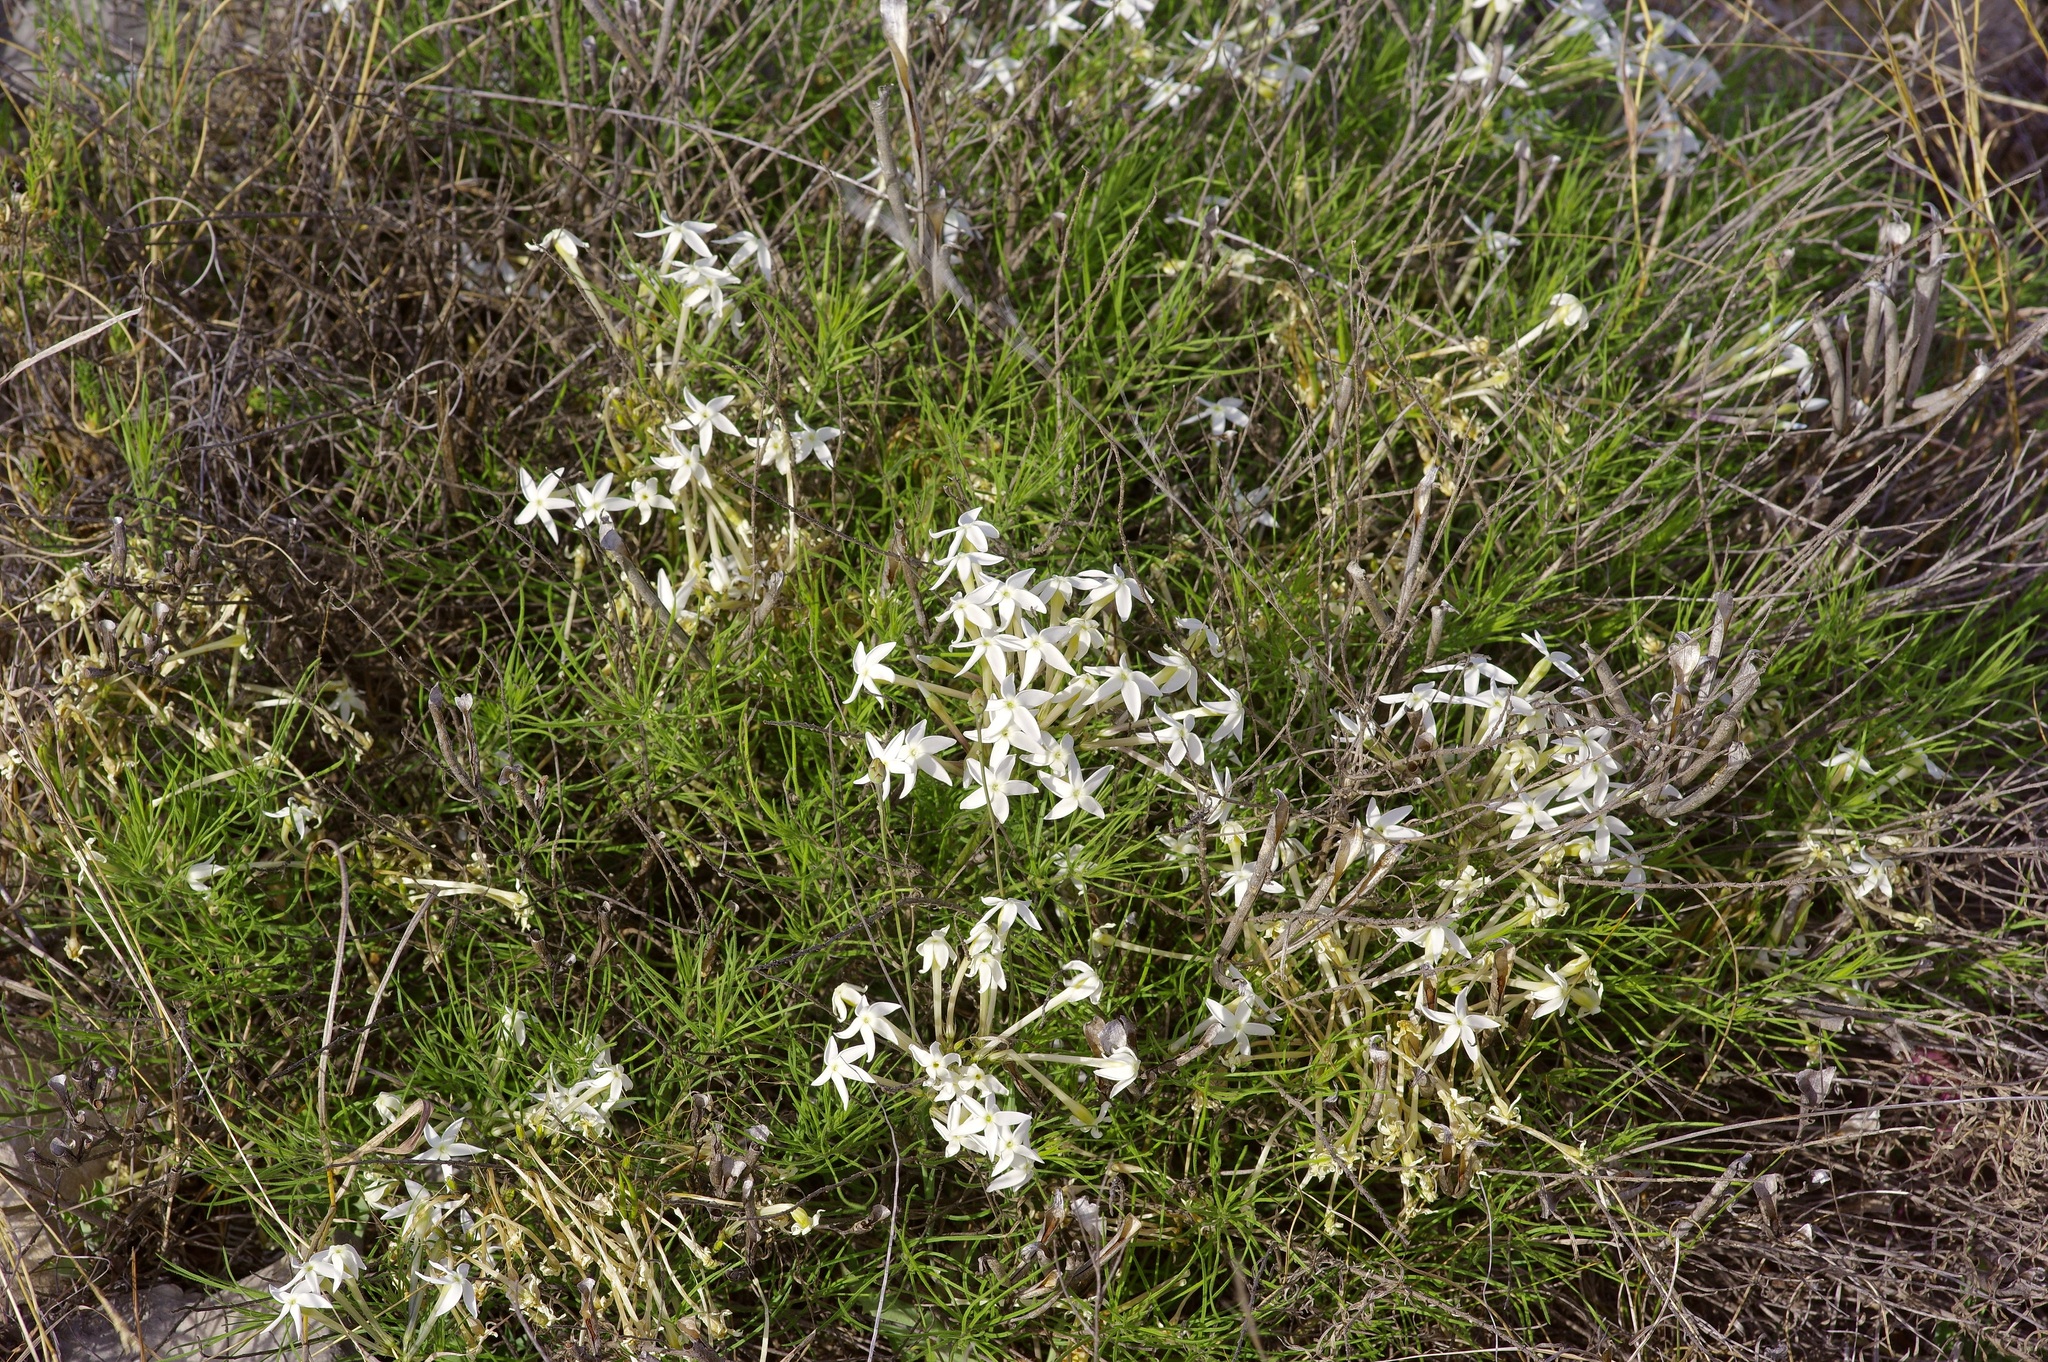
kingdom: Plantae
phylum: Tracheophyta
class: Magnoliopsida
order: Gentianales
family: Apocynaceae
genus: Amsonia
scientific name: Amsonia longiflora
